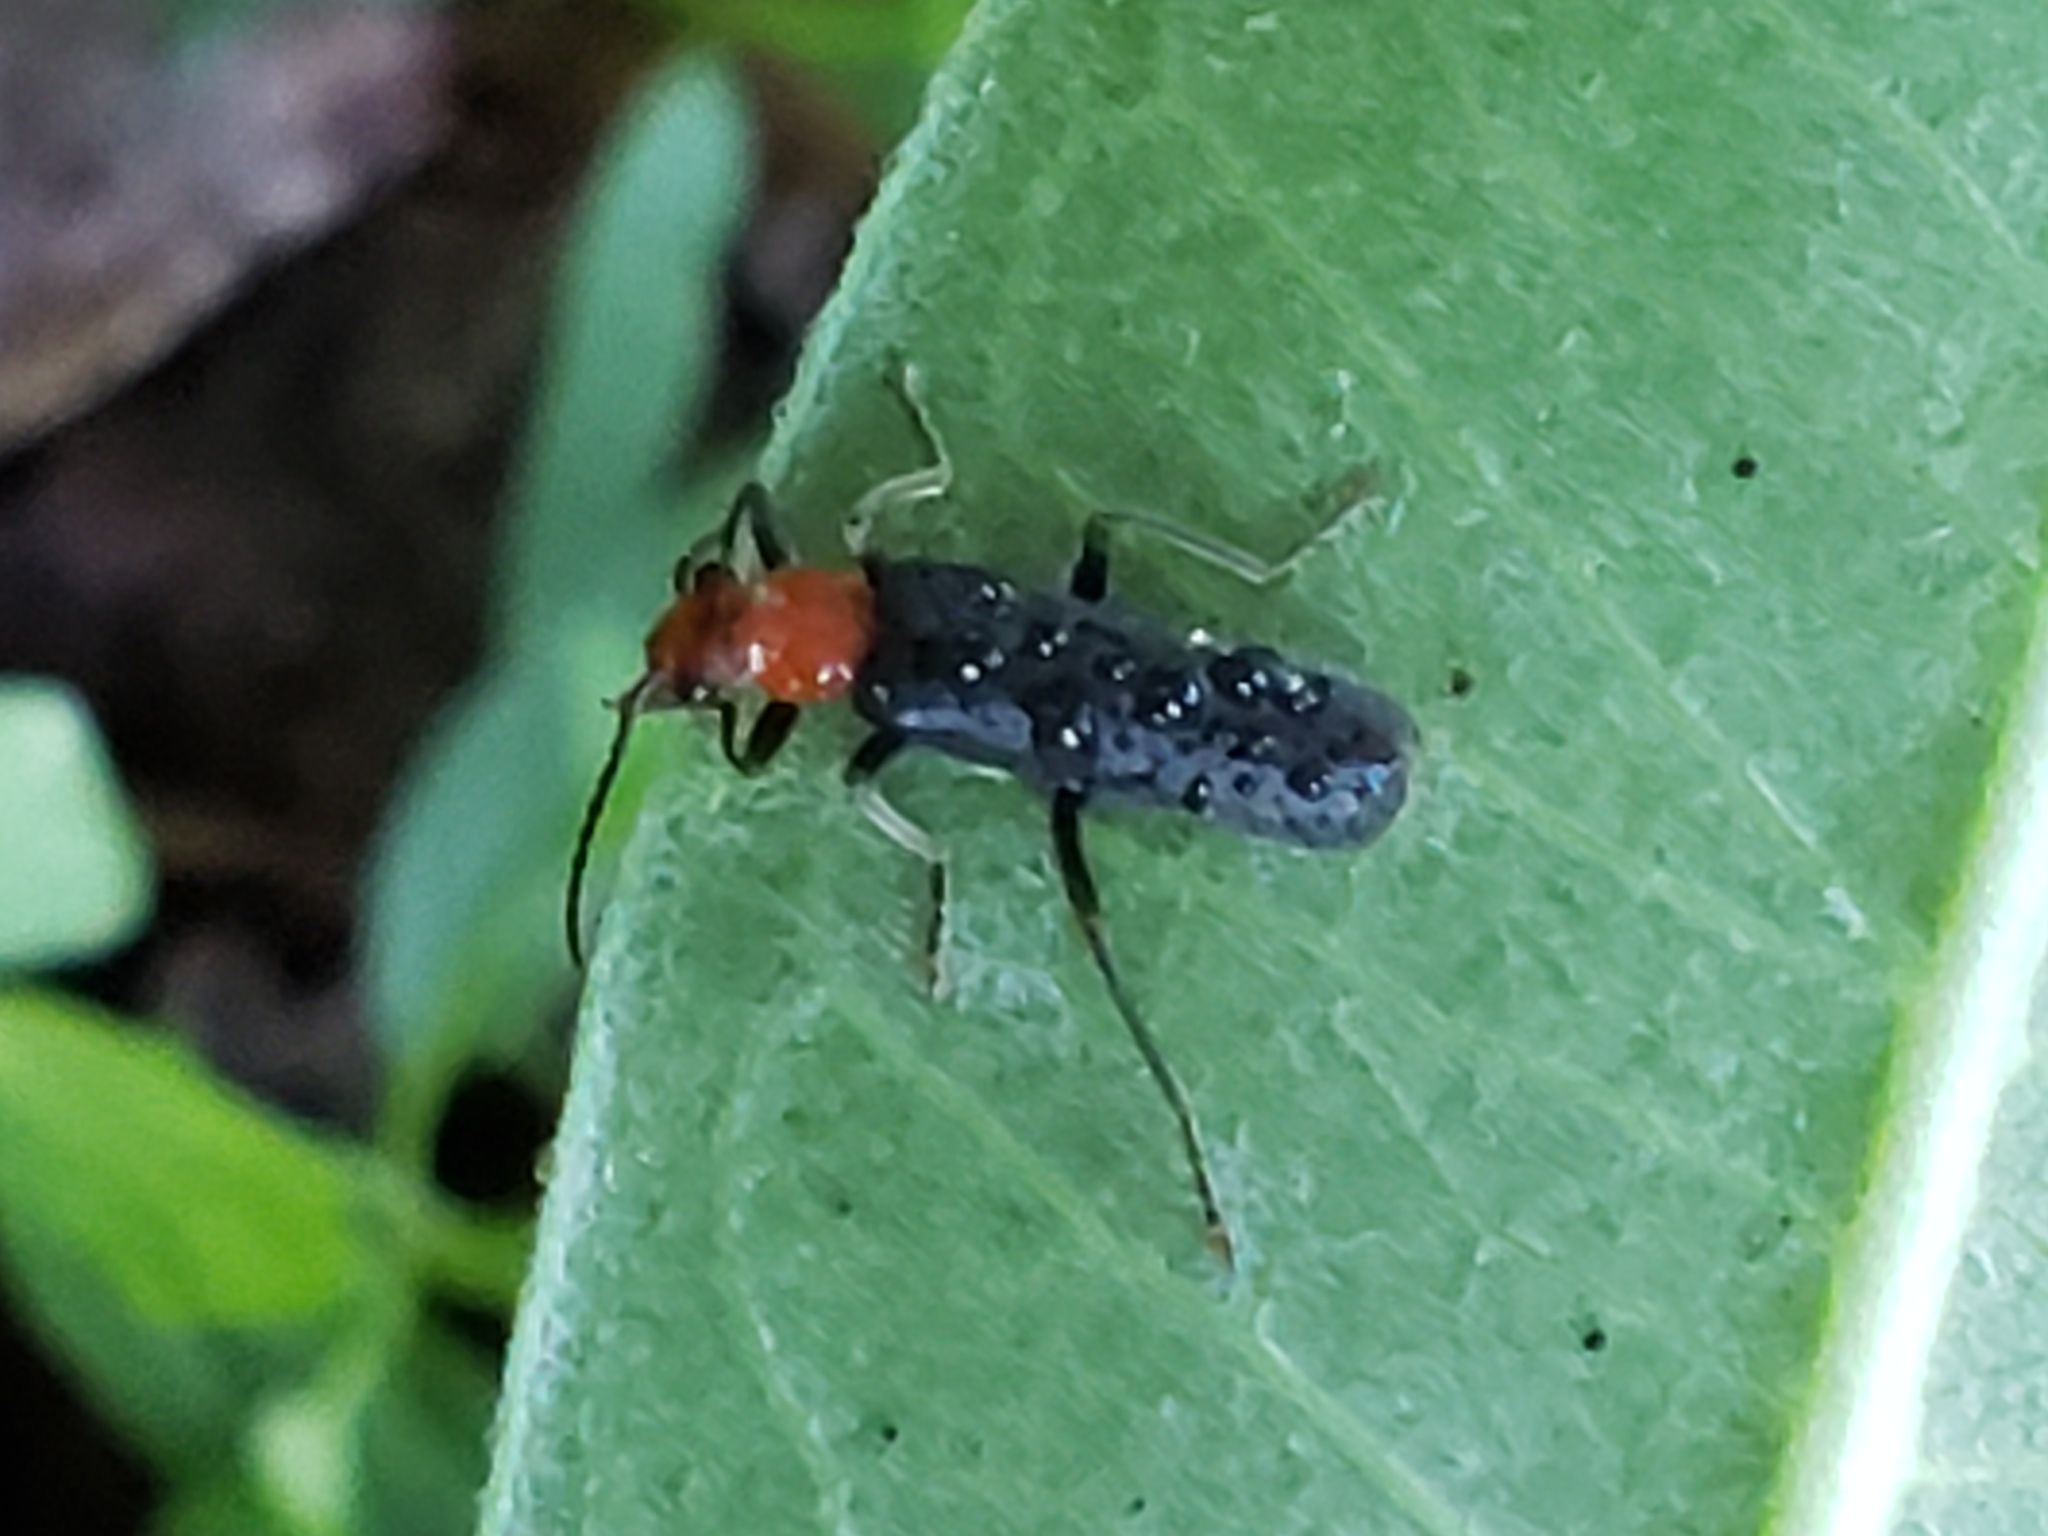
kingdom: Animalia
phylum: Arthropoda
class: Insecta
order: Coleoptera
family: Cantharidae
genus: Podabrus
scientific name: Podabrus pruinosus
